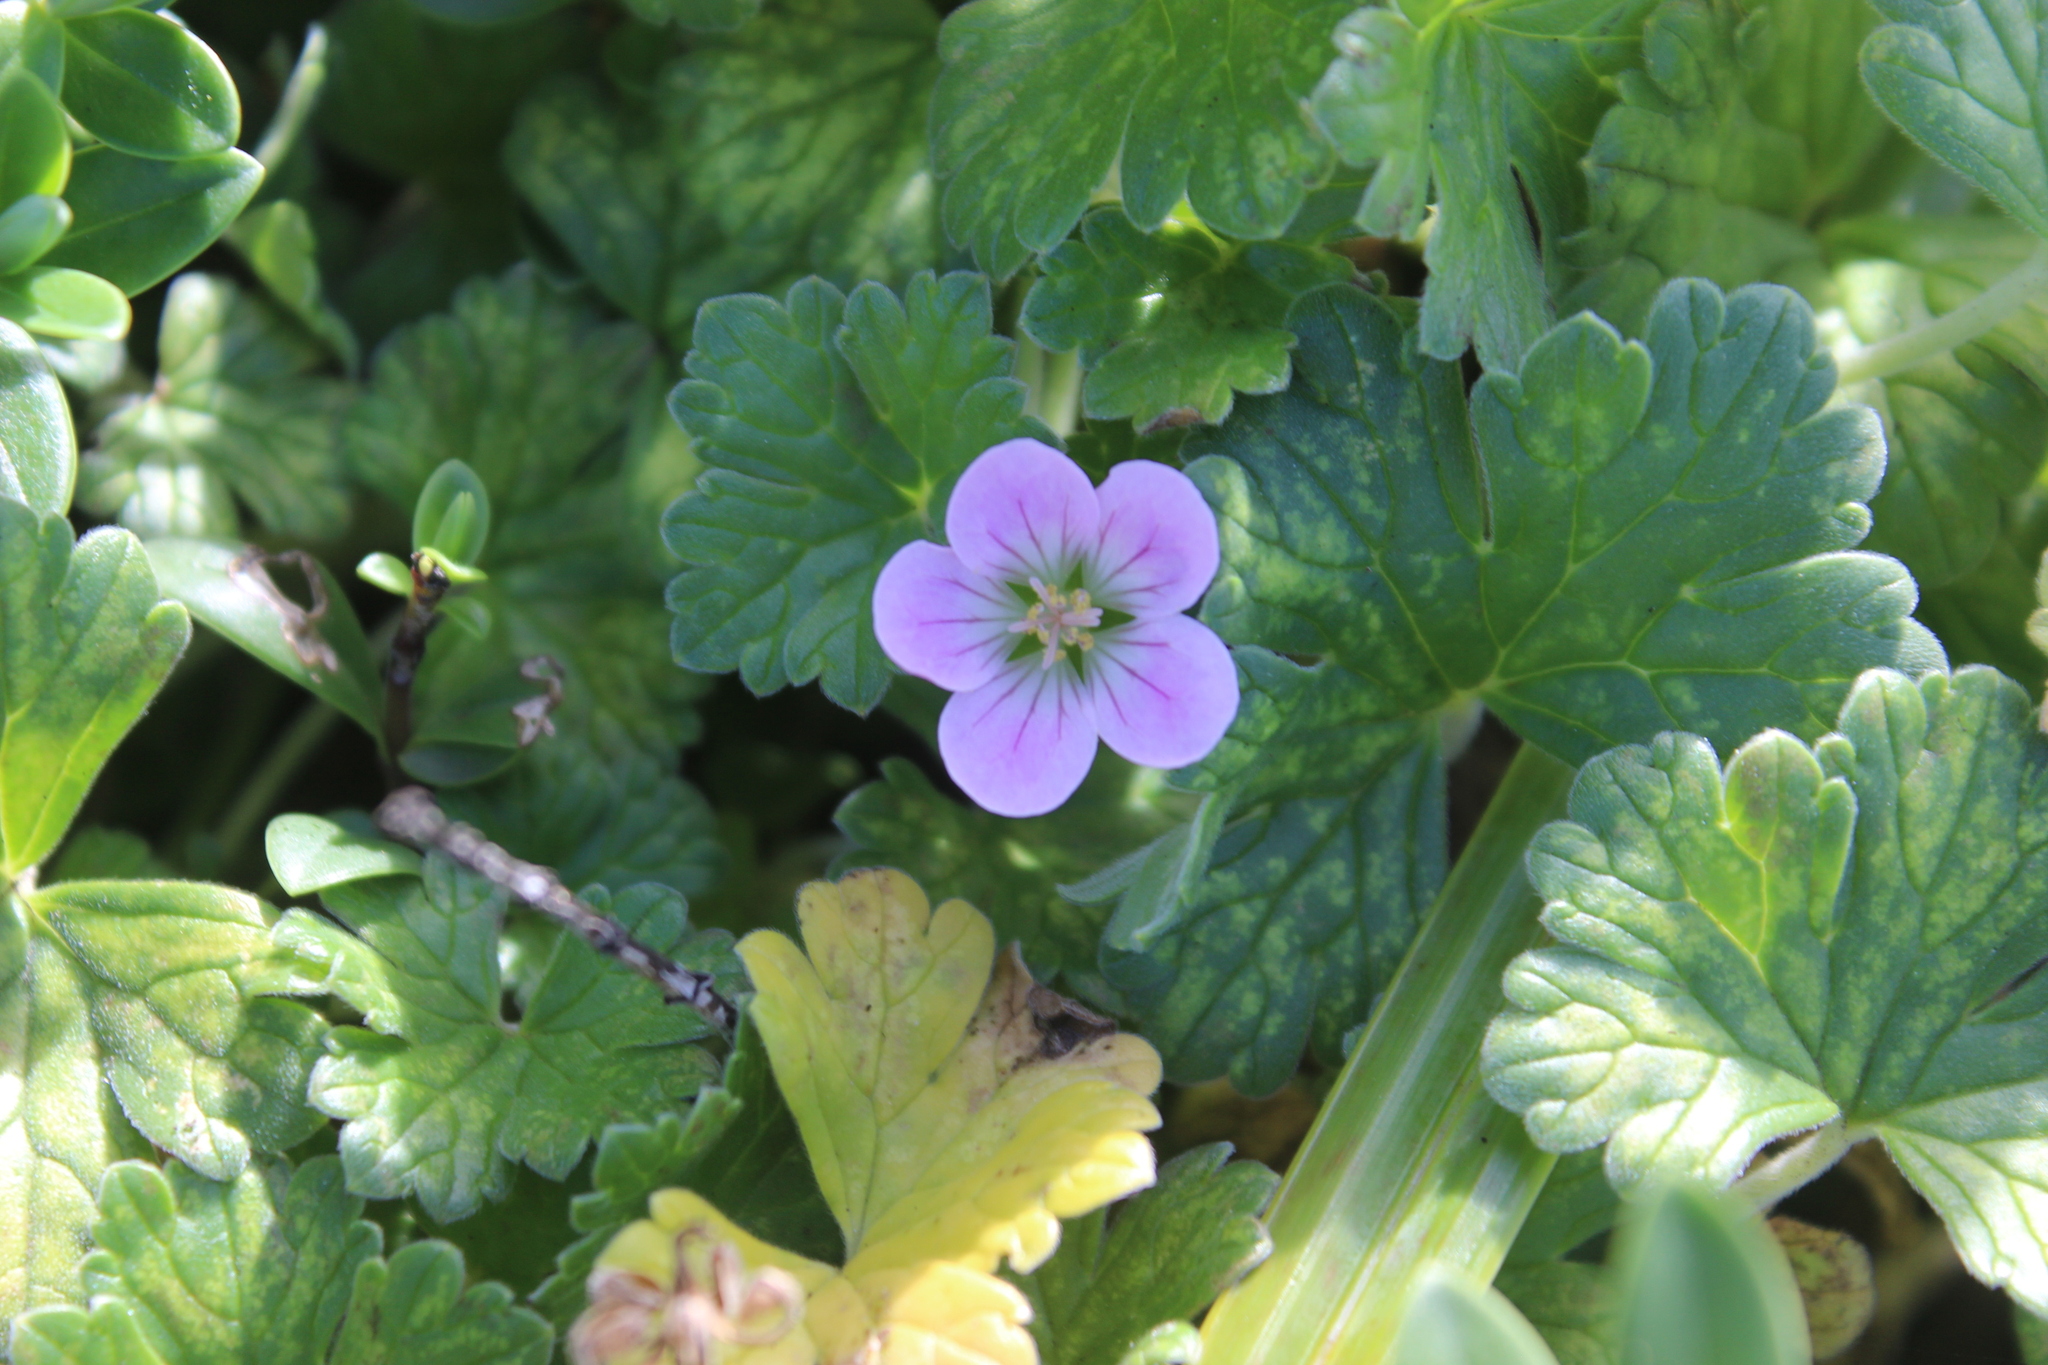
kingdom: Plantae
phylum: Tracheophyta
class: Magnoliopsida
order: Geraniales
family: Geraniaceae
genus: Geranium
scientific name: Geranium traversii
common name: Cranesbill
